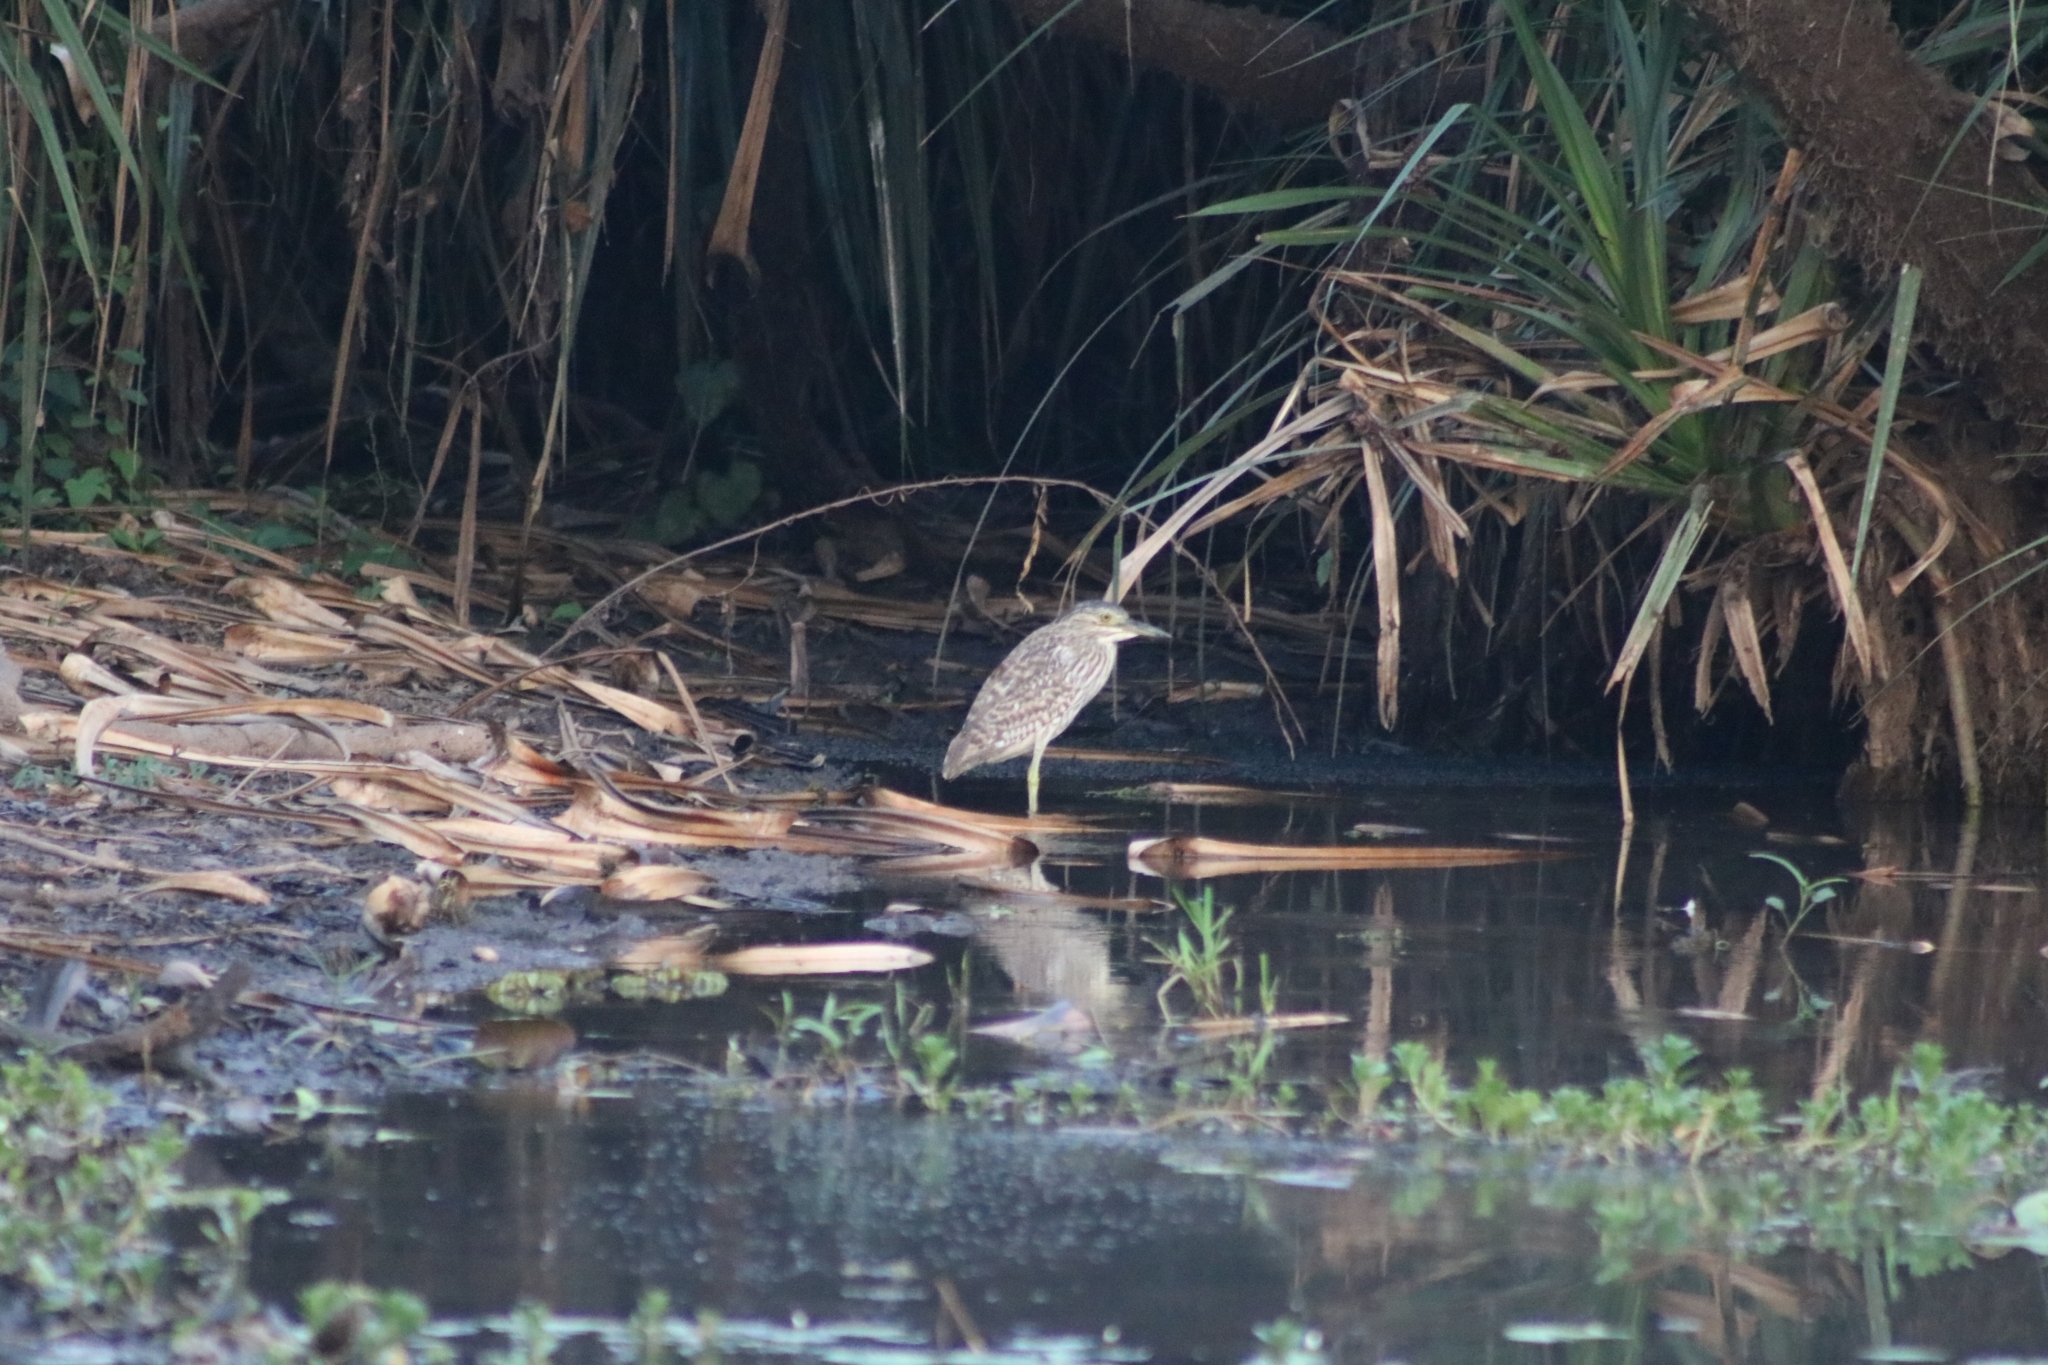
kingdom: Animalia
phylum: Chordata
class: Aves
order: Pelecaniformes
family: Ardeidae
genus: Nycticorax
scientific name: Nycticorax caledonicus
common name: Rufous night-heron
